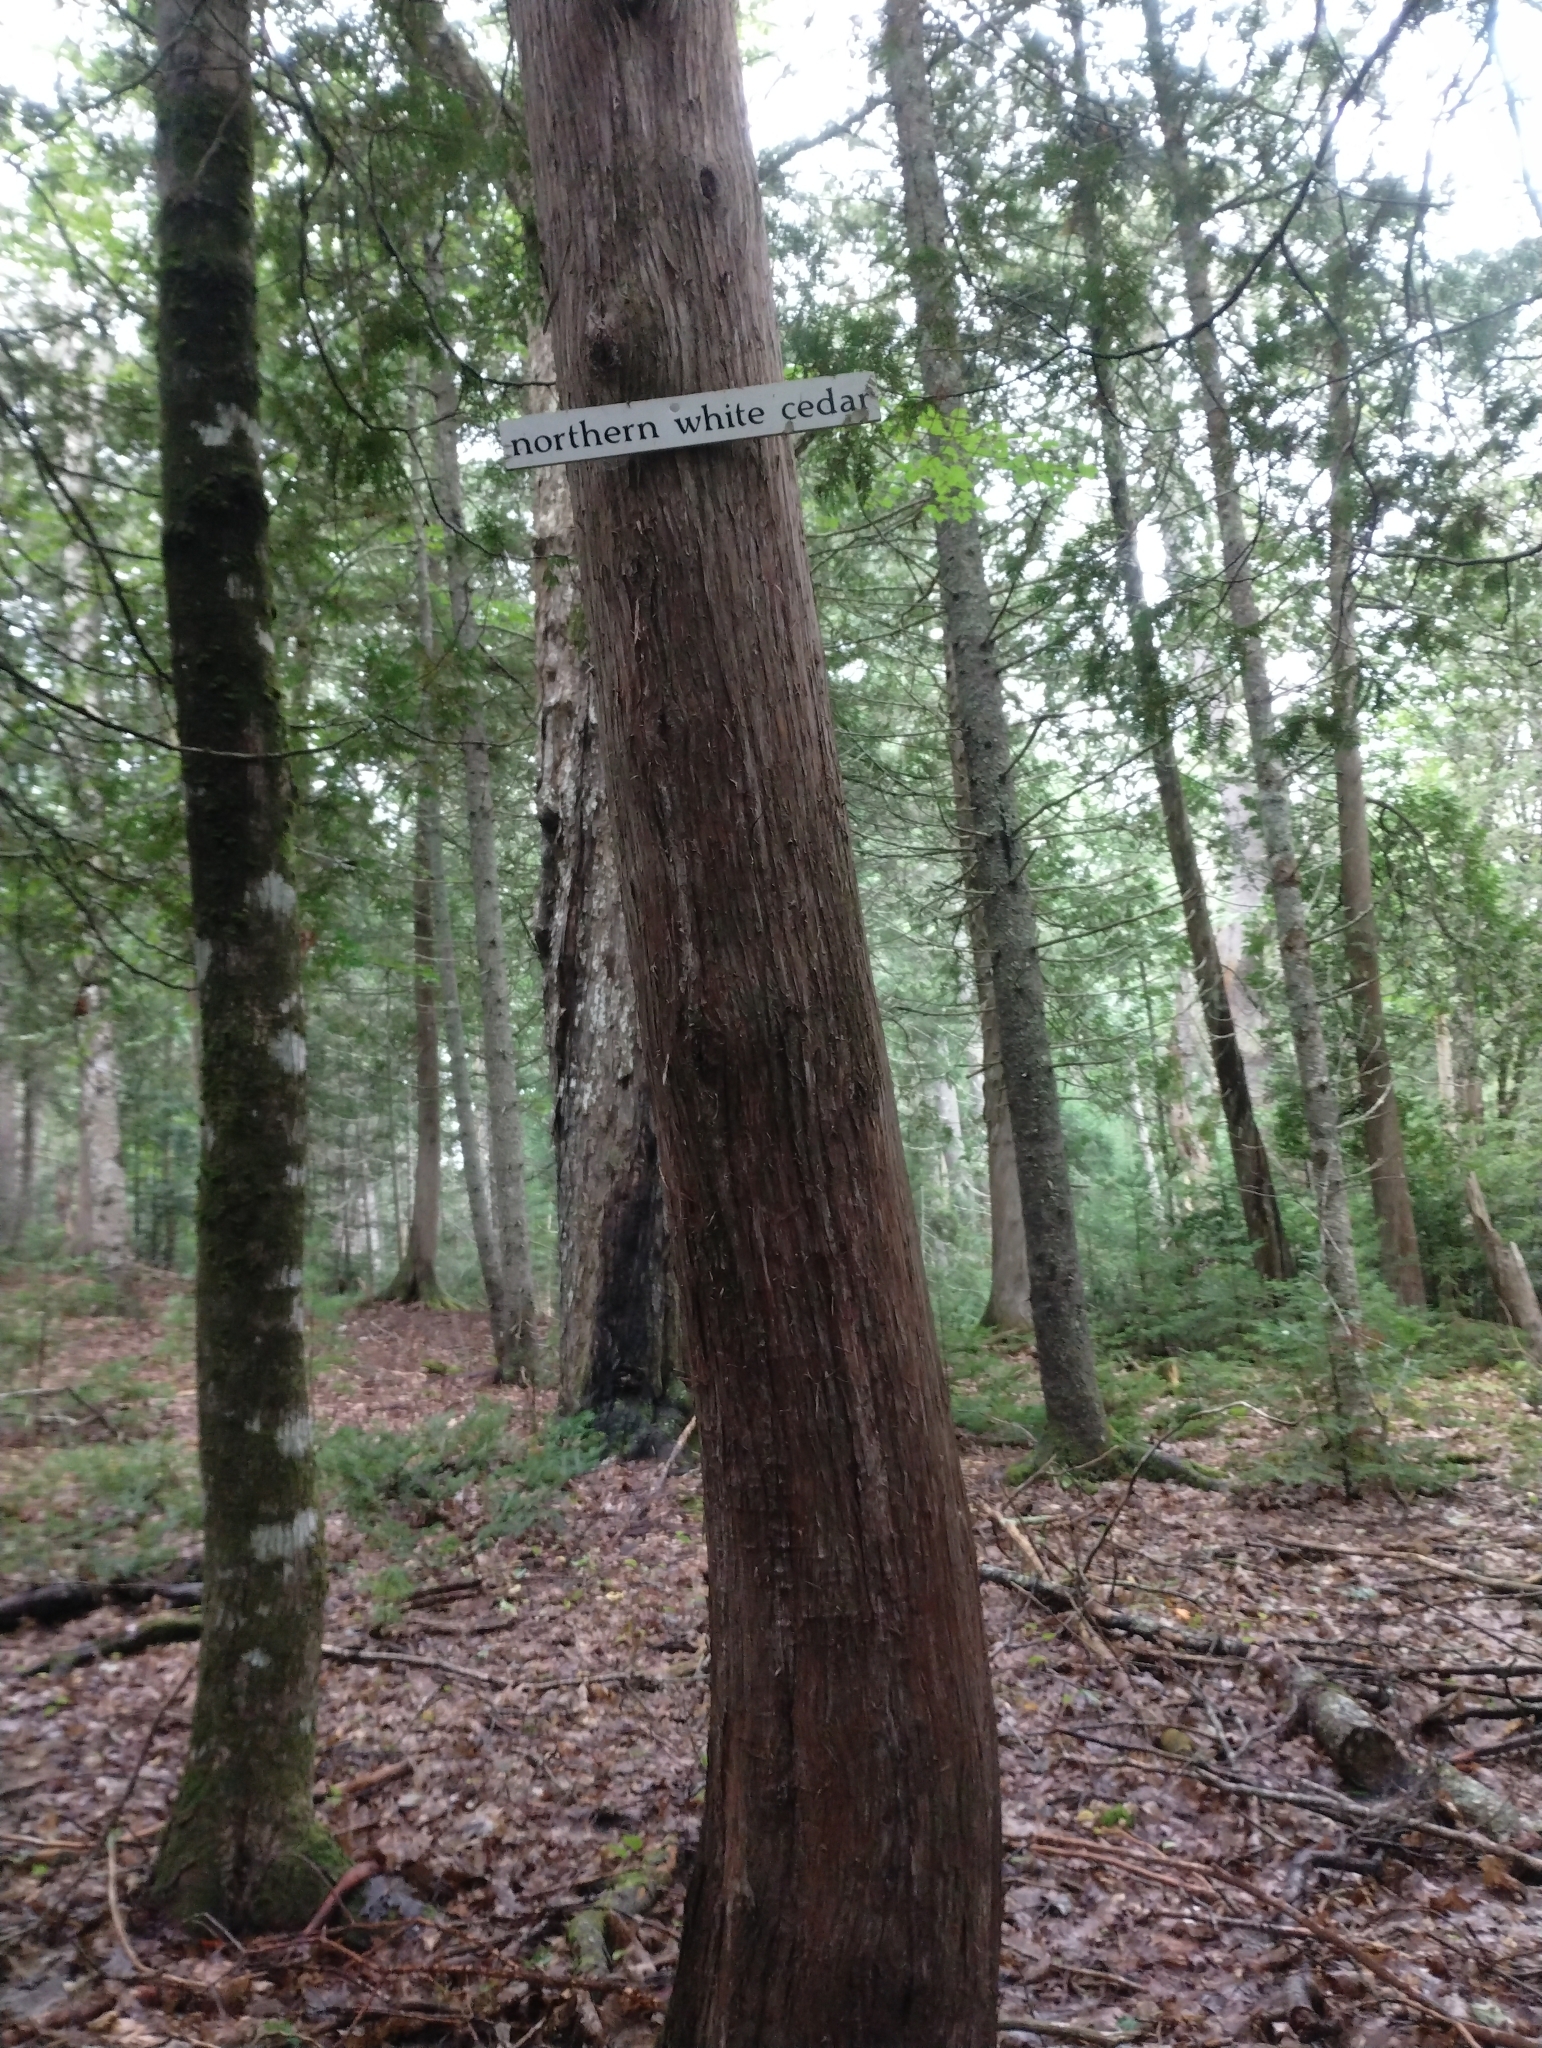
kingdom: Plantae
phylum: Tracheophyta
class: Pinopsida
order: Pinales
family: Cupressaceae
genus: Thuja
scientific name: Thuja occidentalis
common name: Northern white-cedar
